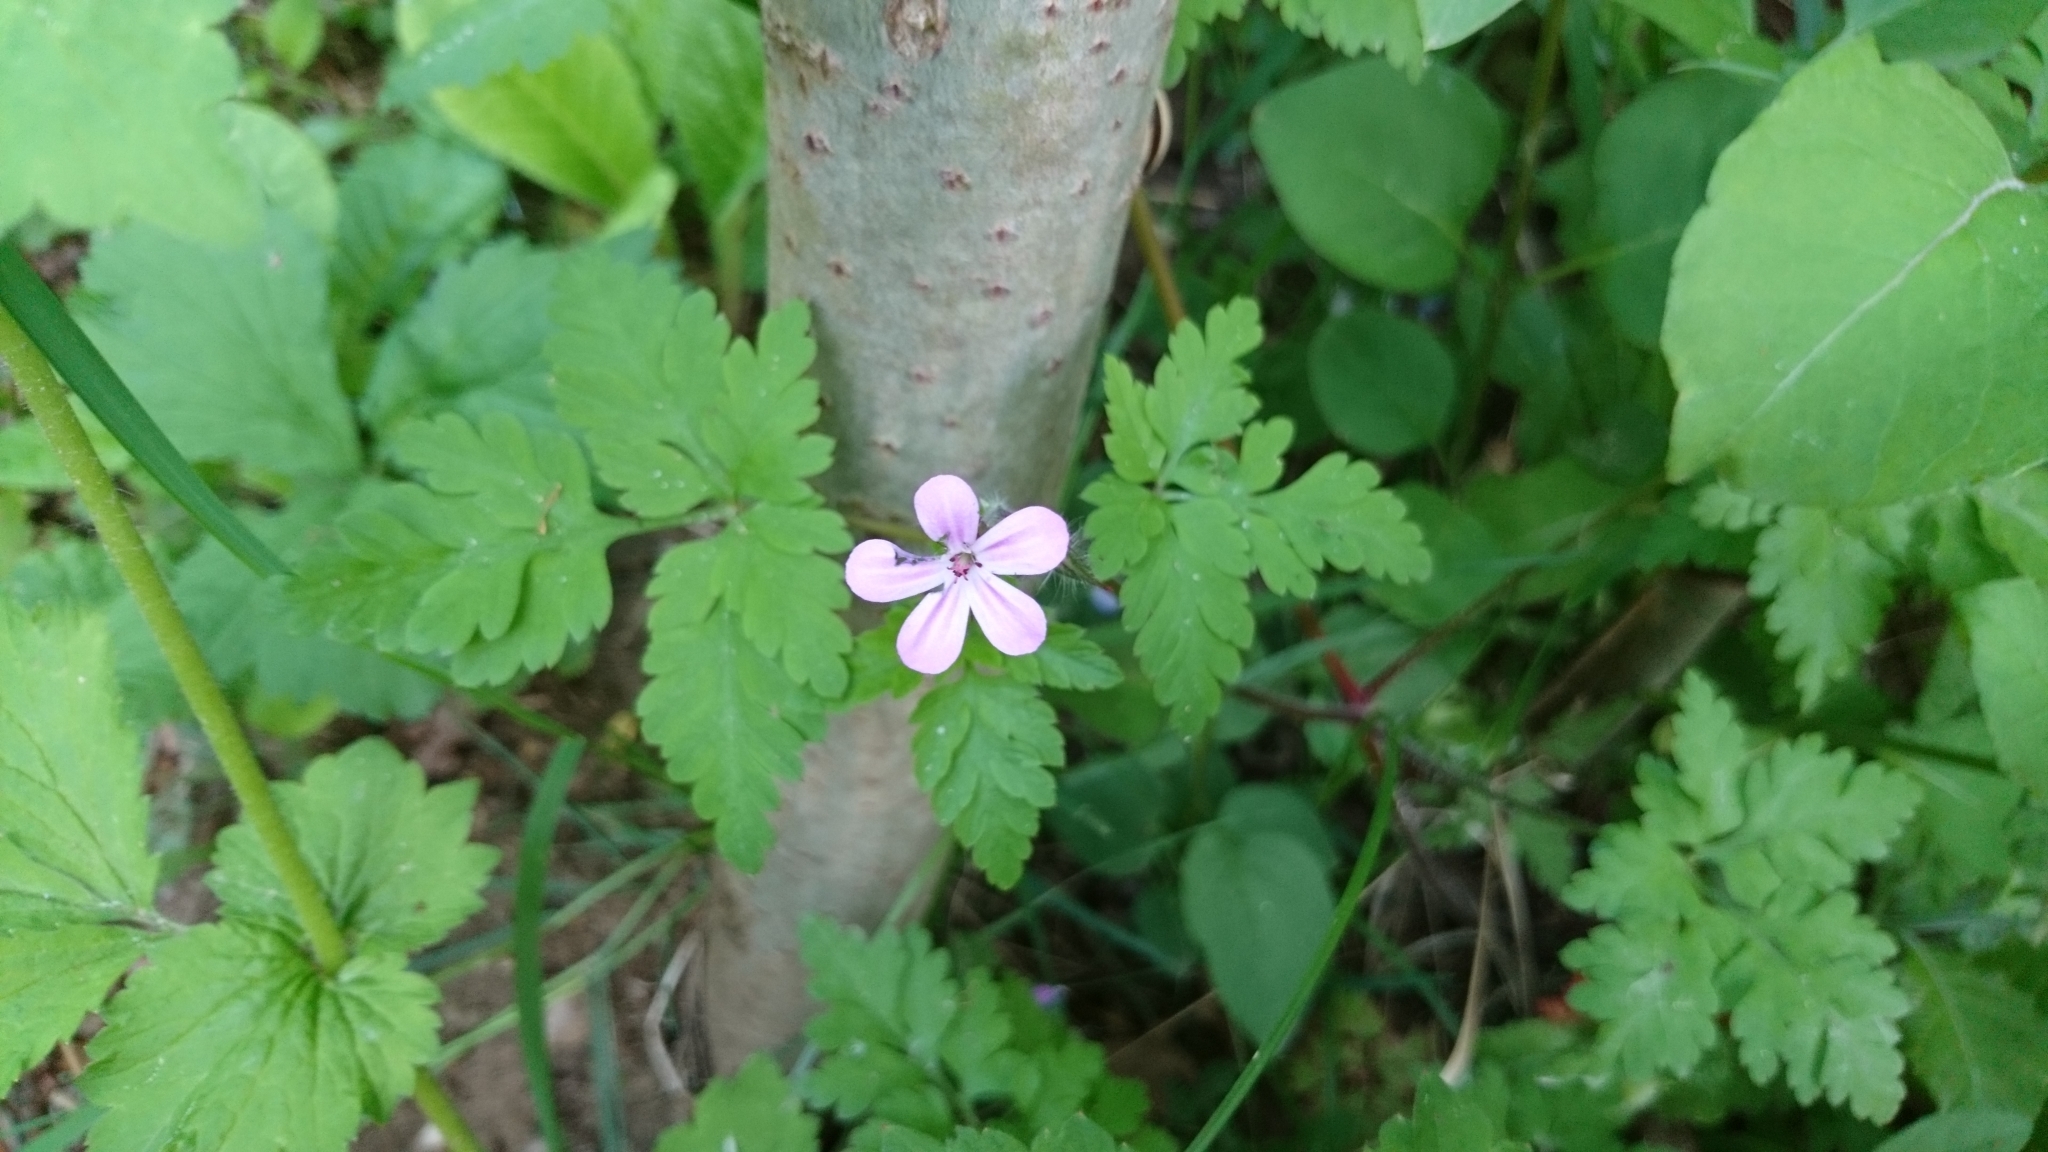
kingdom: Plantae
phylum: Tracheophyta
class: Magnoliopsida
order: Geraniales
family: Geraniaceae
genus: Geranium
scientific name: Geranium robertianum
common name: Herb-robert
